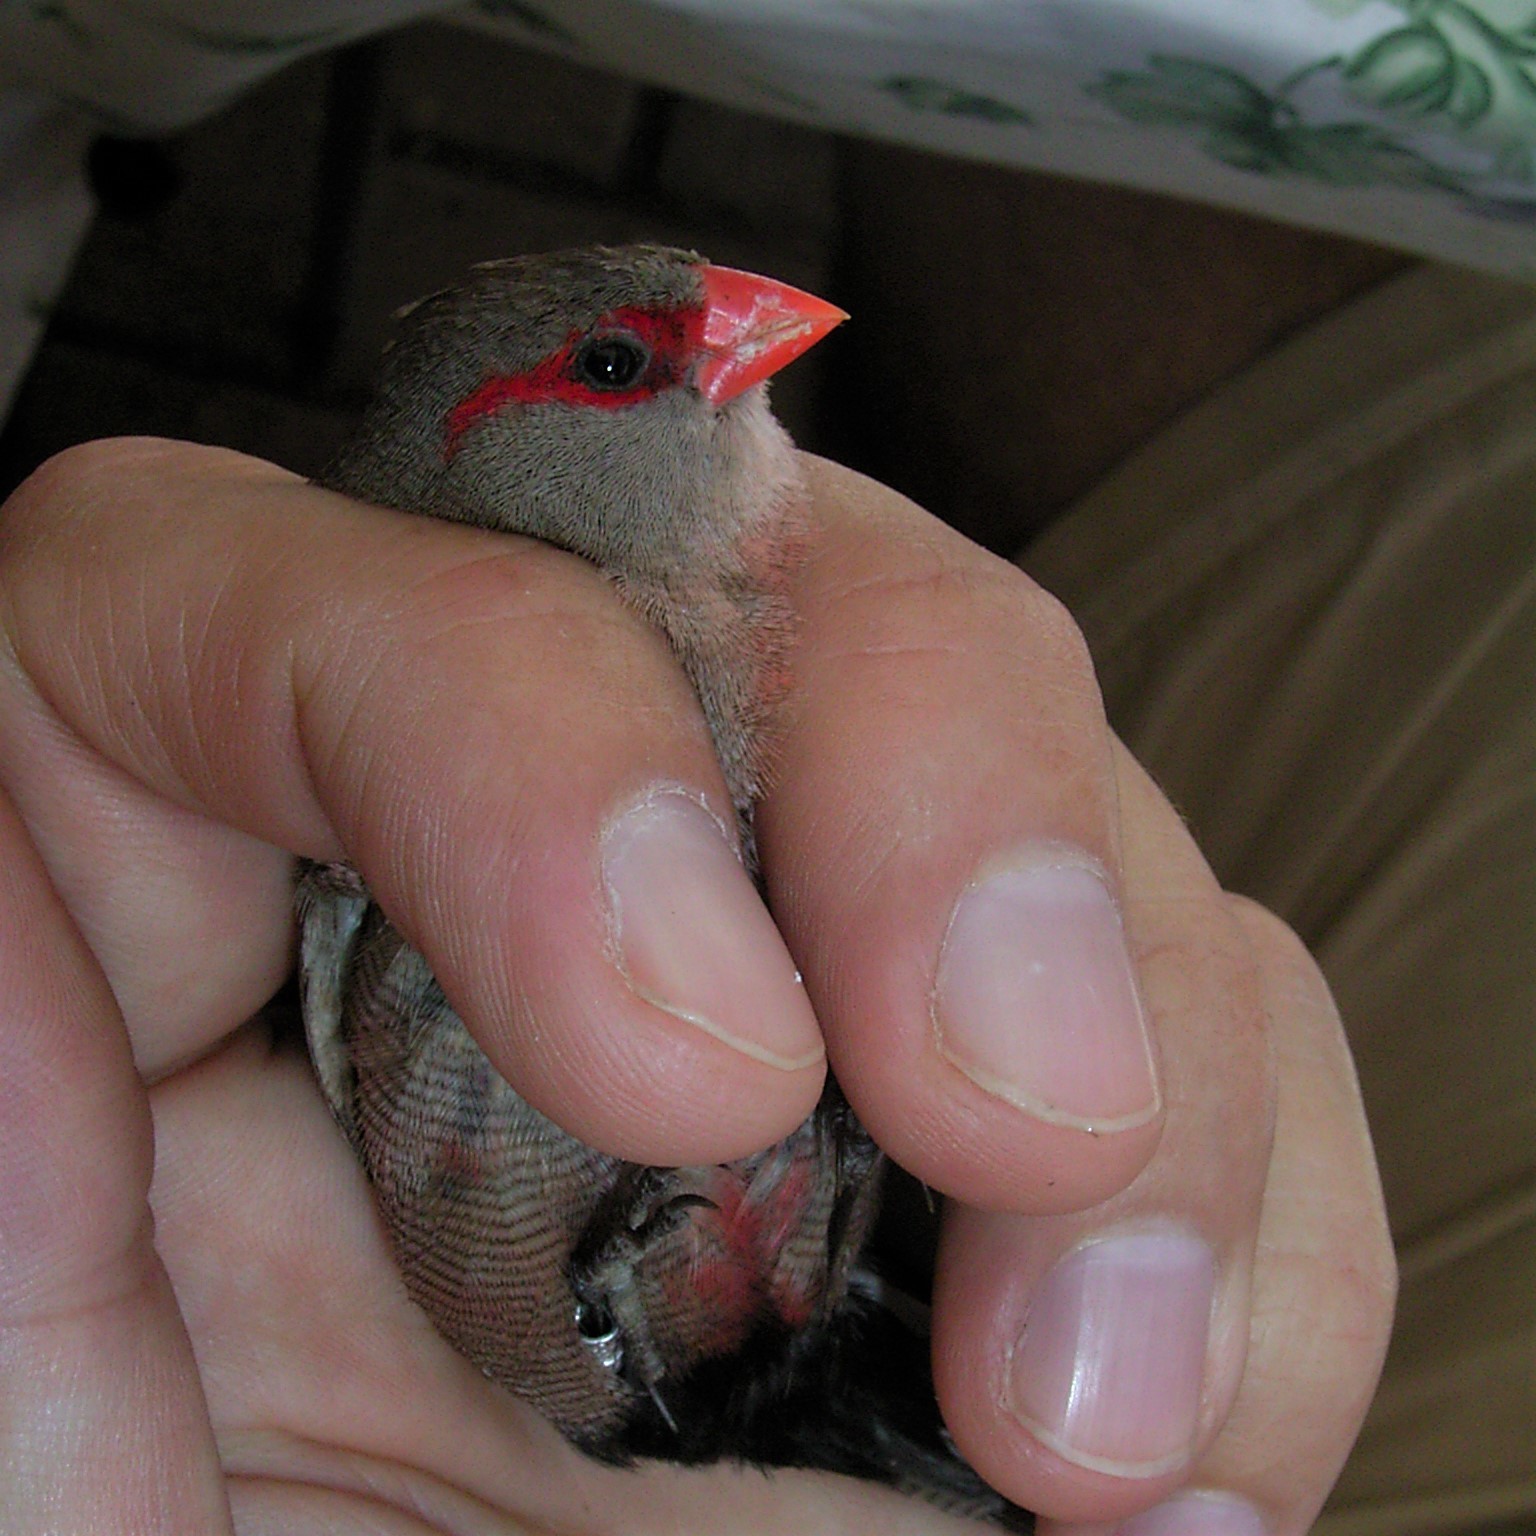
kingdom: Animalia
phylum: Chordata
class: Aves
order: Passeriformes
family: Estrildidae
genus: Estrilda
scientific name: Estrilda astrild
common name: Common waxbill
